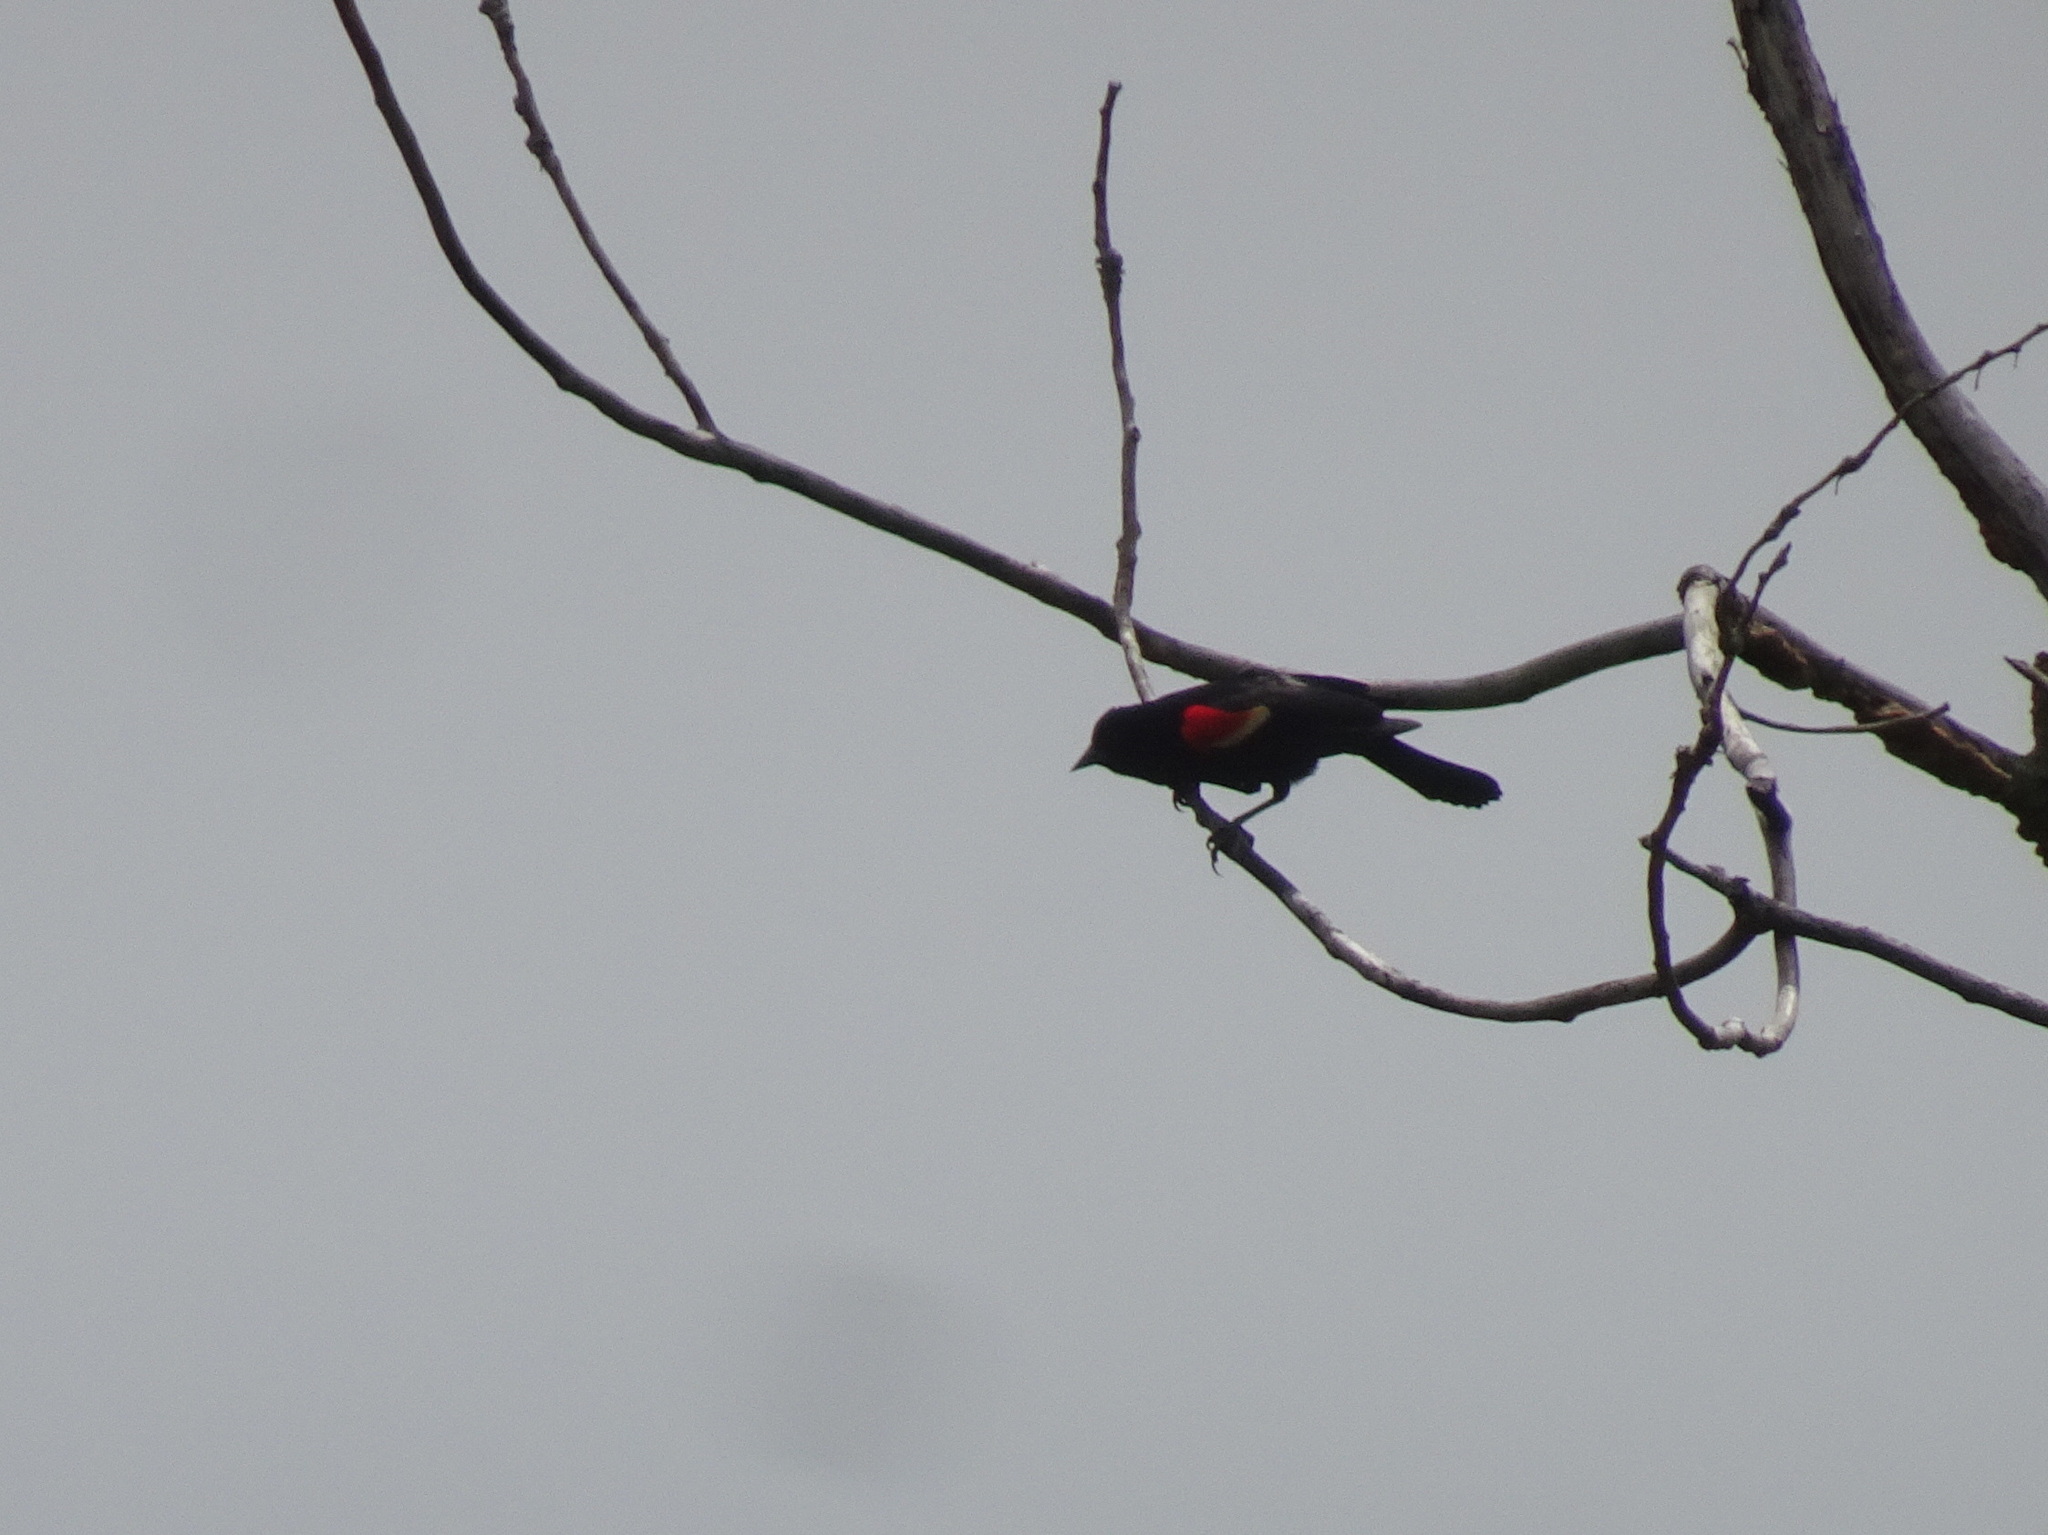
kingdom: Animalia
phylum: Chordata
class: Aves
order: Passeriformes
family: Icteridae
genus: Agelaius
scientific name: Agelaius phoeniceus
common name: Red-winged blackbird
